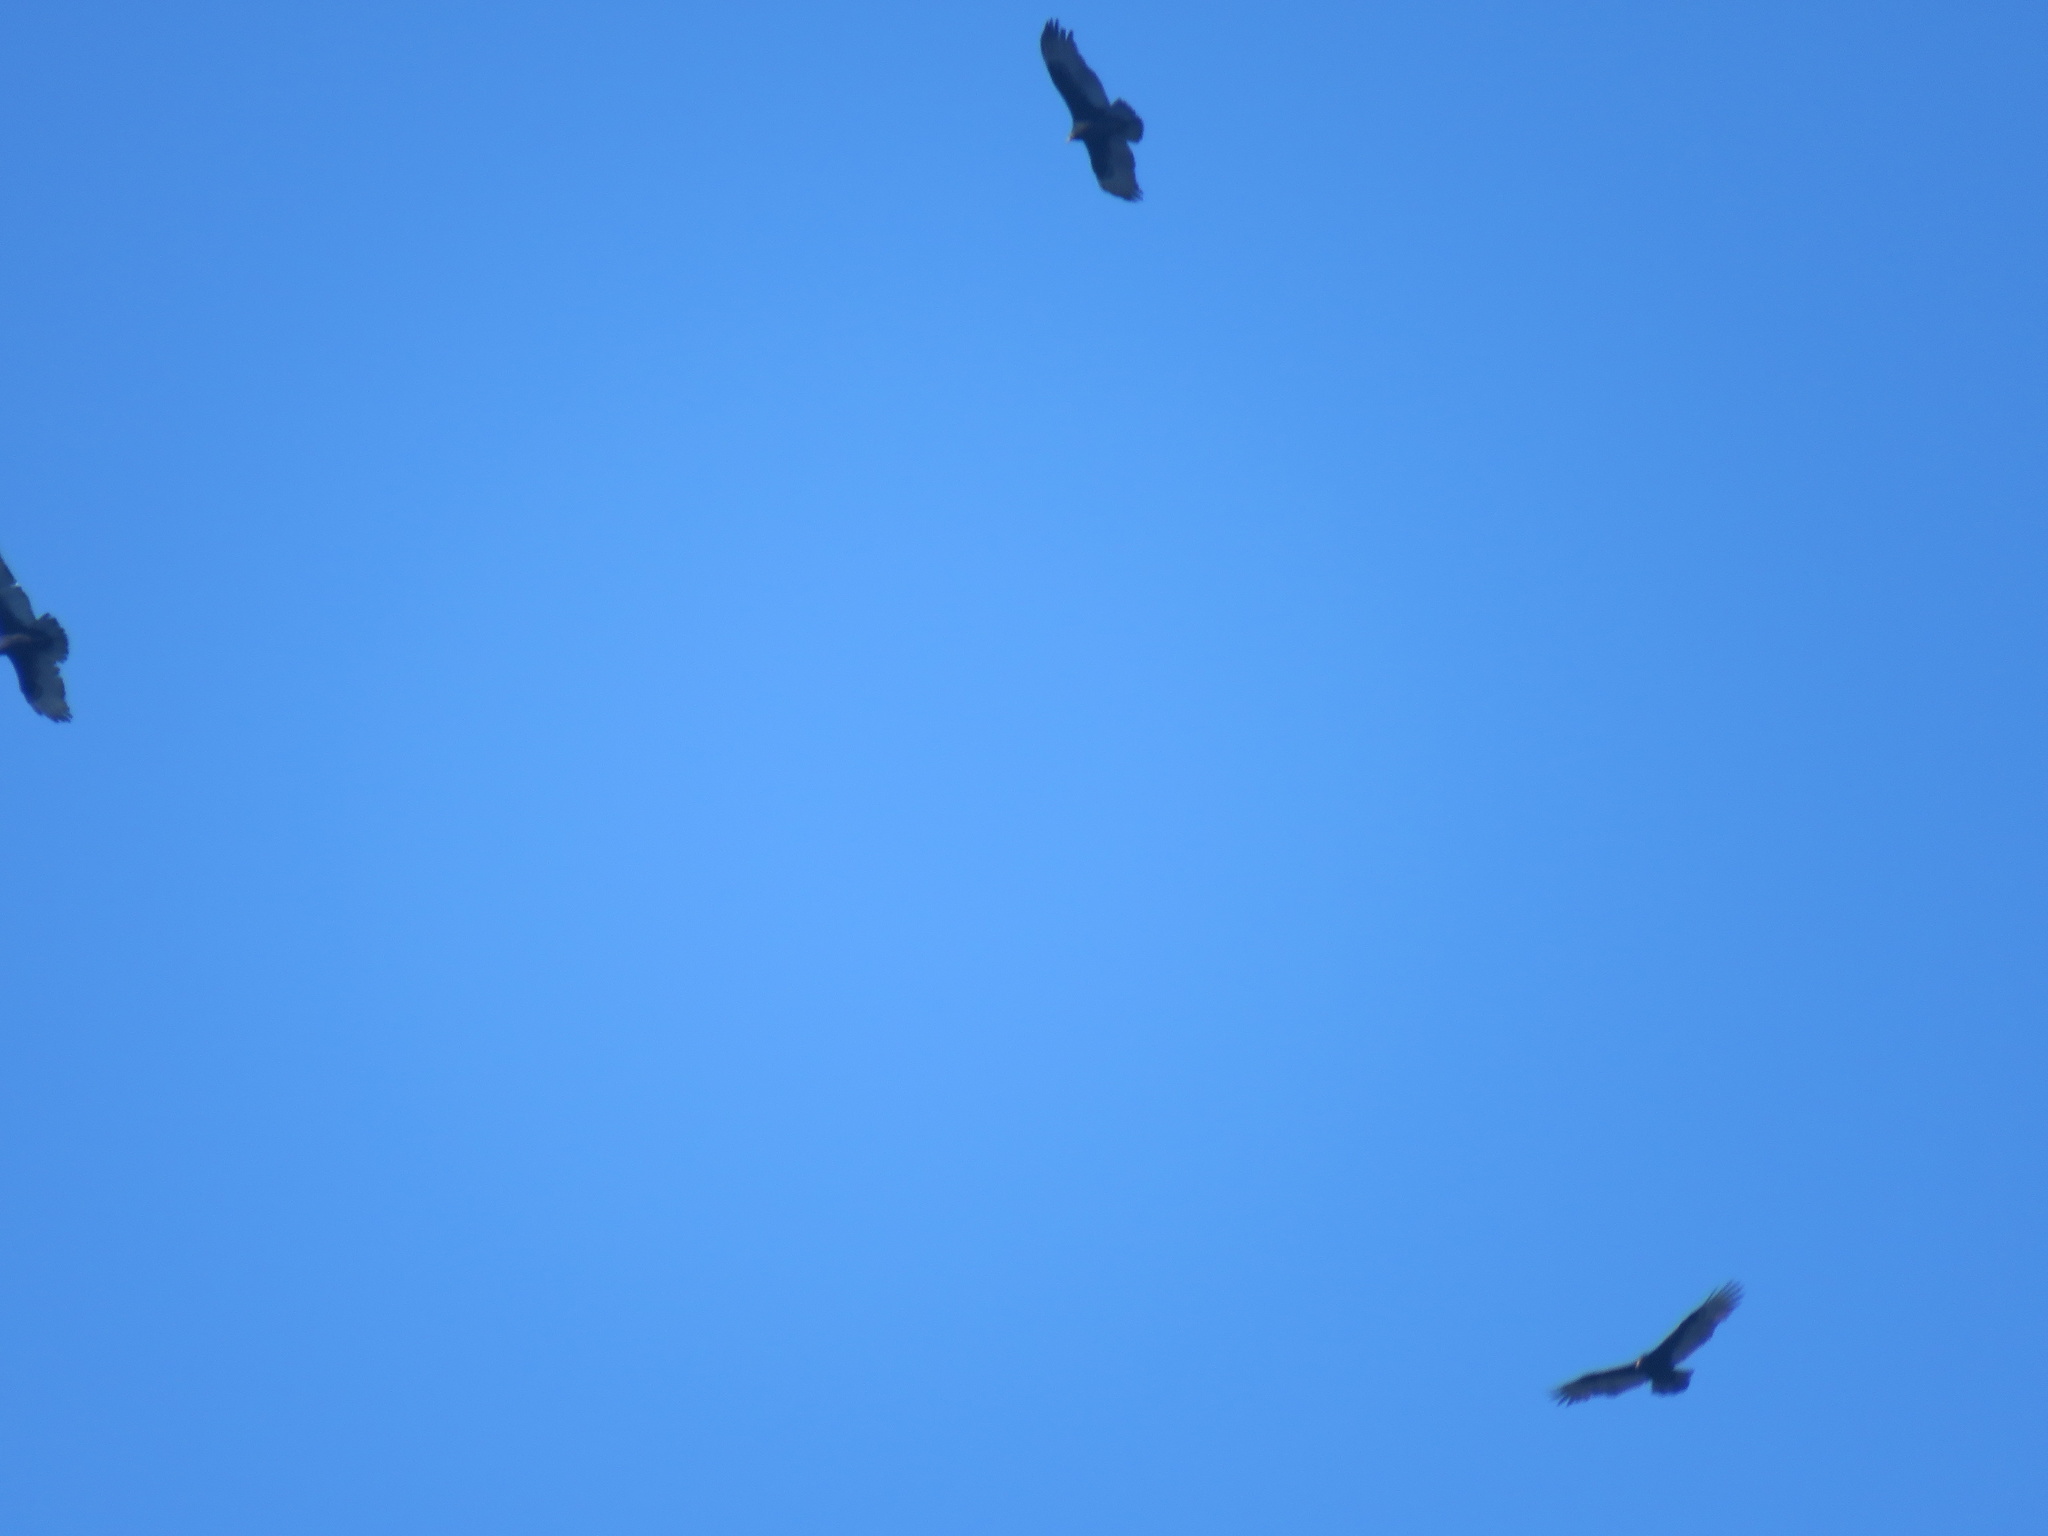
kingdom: Animalia
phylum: Chordata
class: Aves
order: Accipitriformes
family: Cathartidae
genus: Cathartes
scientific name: Cathartes aura
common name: Turkey vulture
